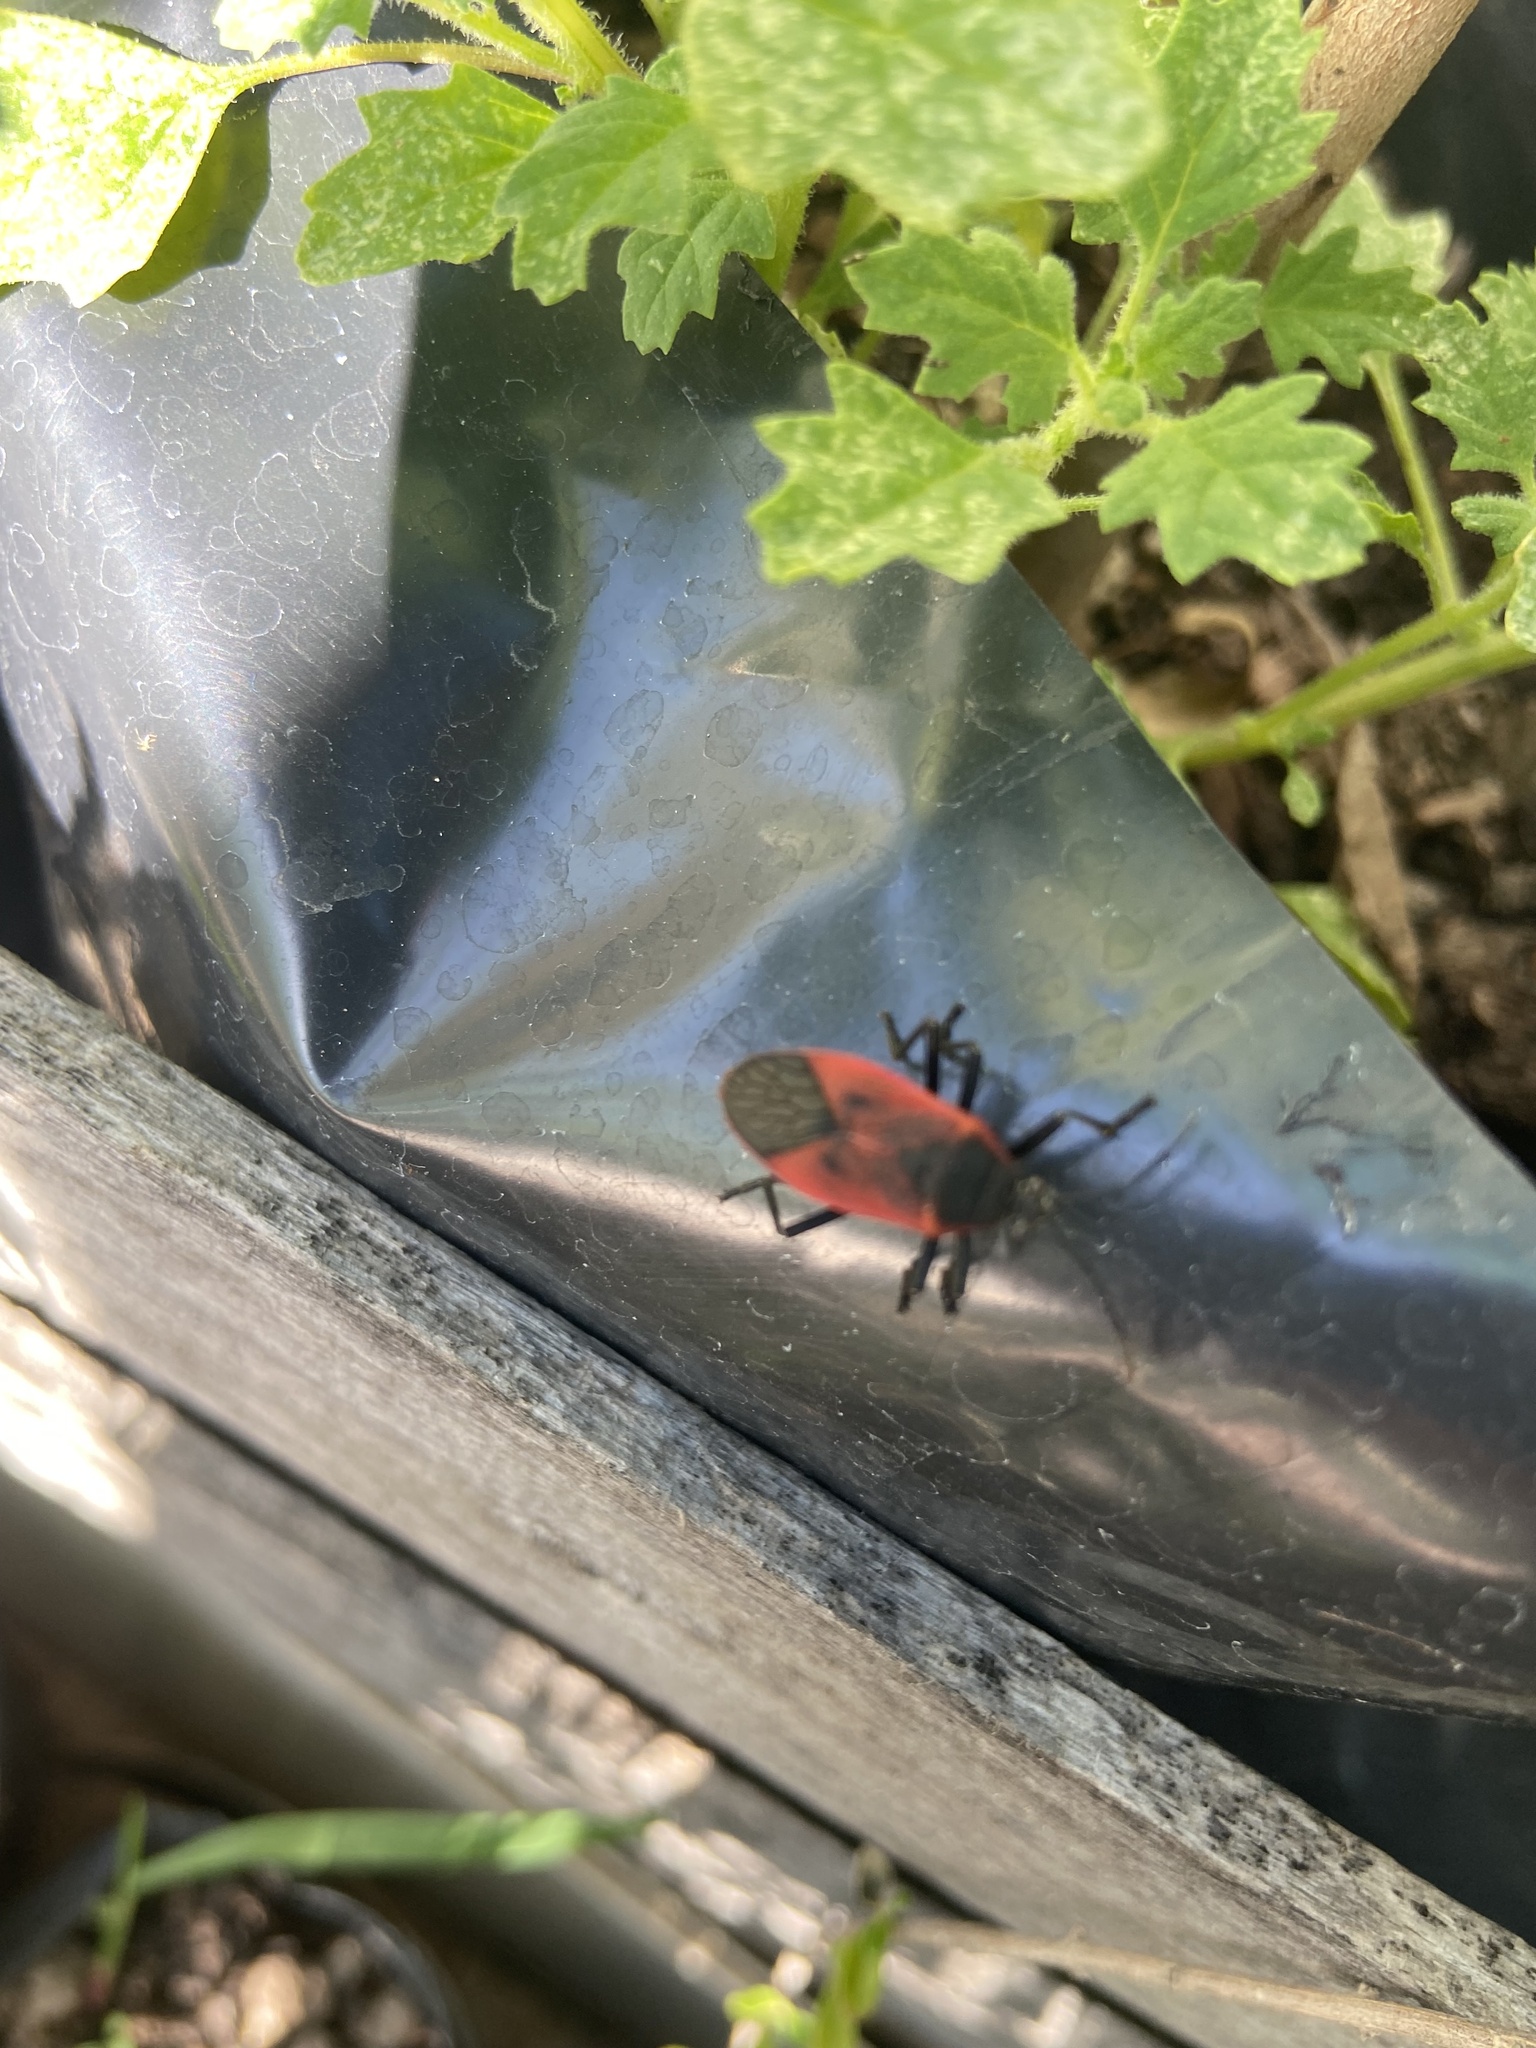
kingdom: Animalia
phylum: Arthropoda
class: Insecta
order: Hemiptera
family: Largidae
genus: Largus
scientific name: Largus rufipennis
